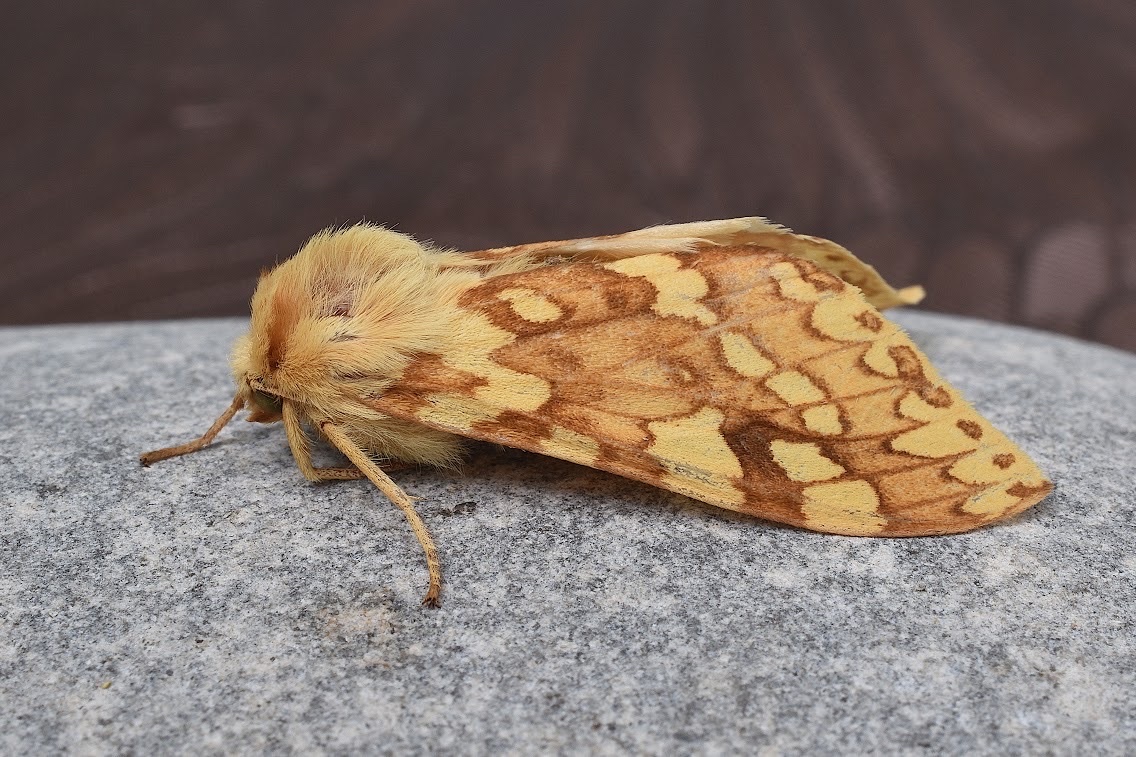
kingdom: Animalia
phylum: Arthropoda
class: Insecta
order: Lepidoptera
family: Erebidae
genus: Lophocampa
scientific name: Lophocampa maculata
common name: Spotted tussock moth
